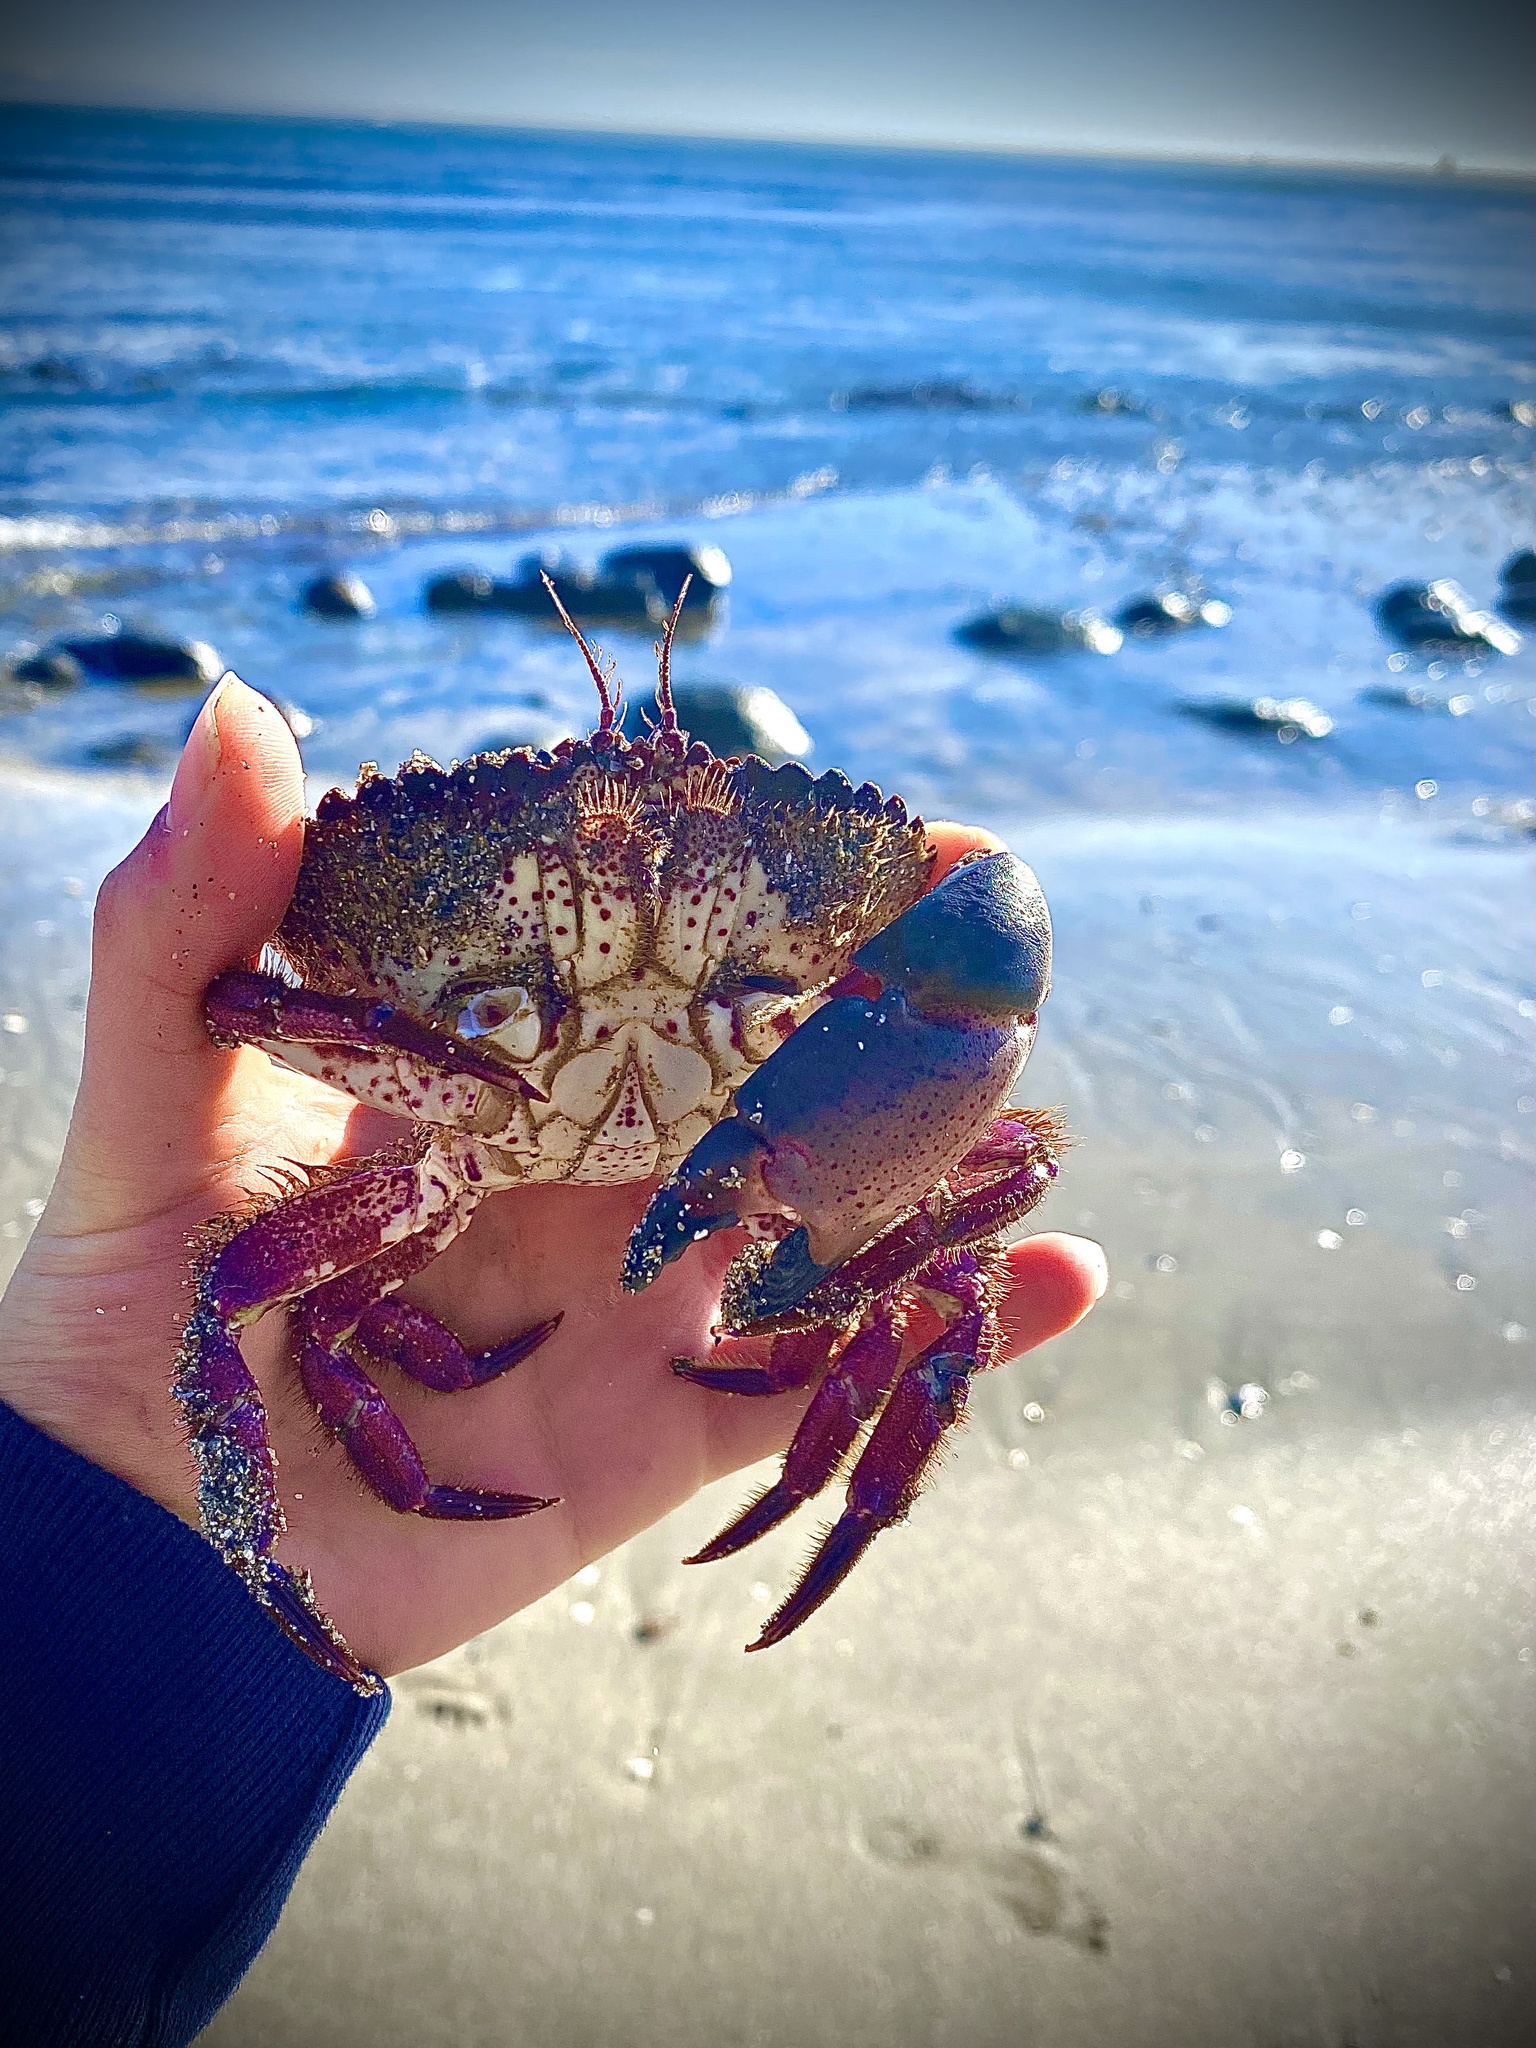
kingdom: Animalia
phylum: Arthropoda
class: Malacostraca
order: Decapoda
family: Cancridae
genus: Romaleon
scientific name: Romaleon antennarium
